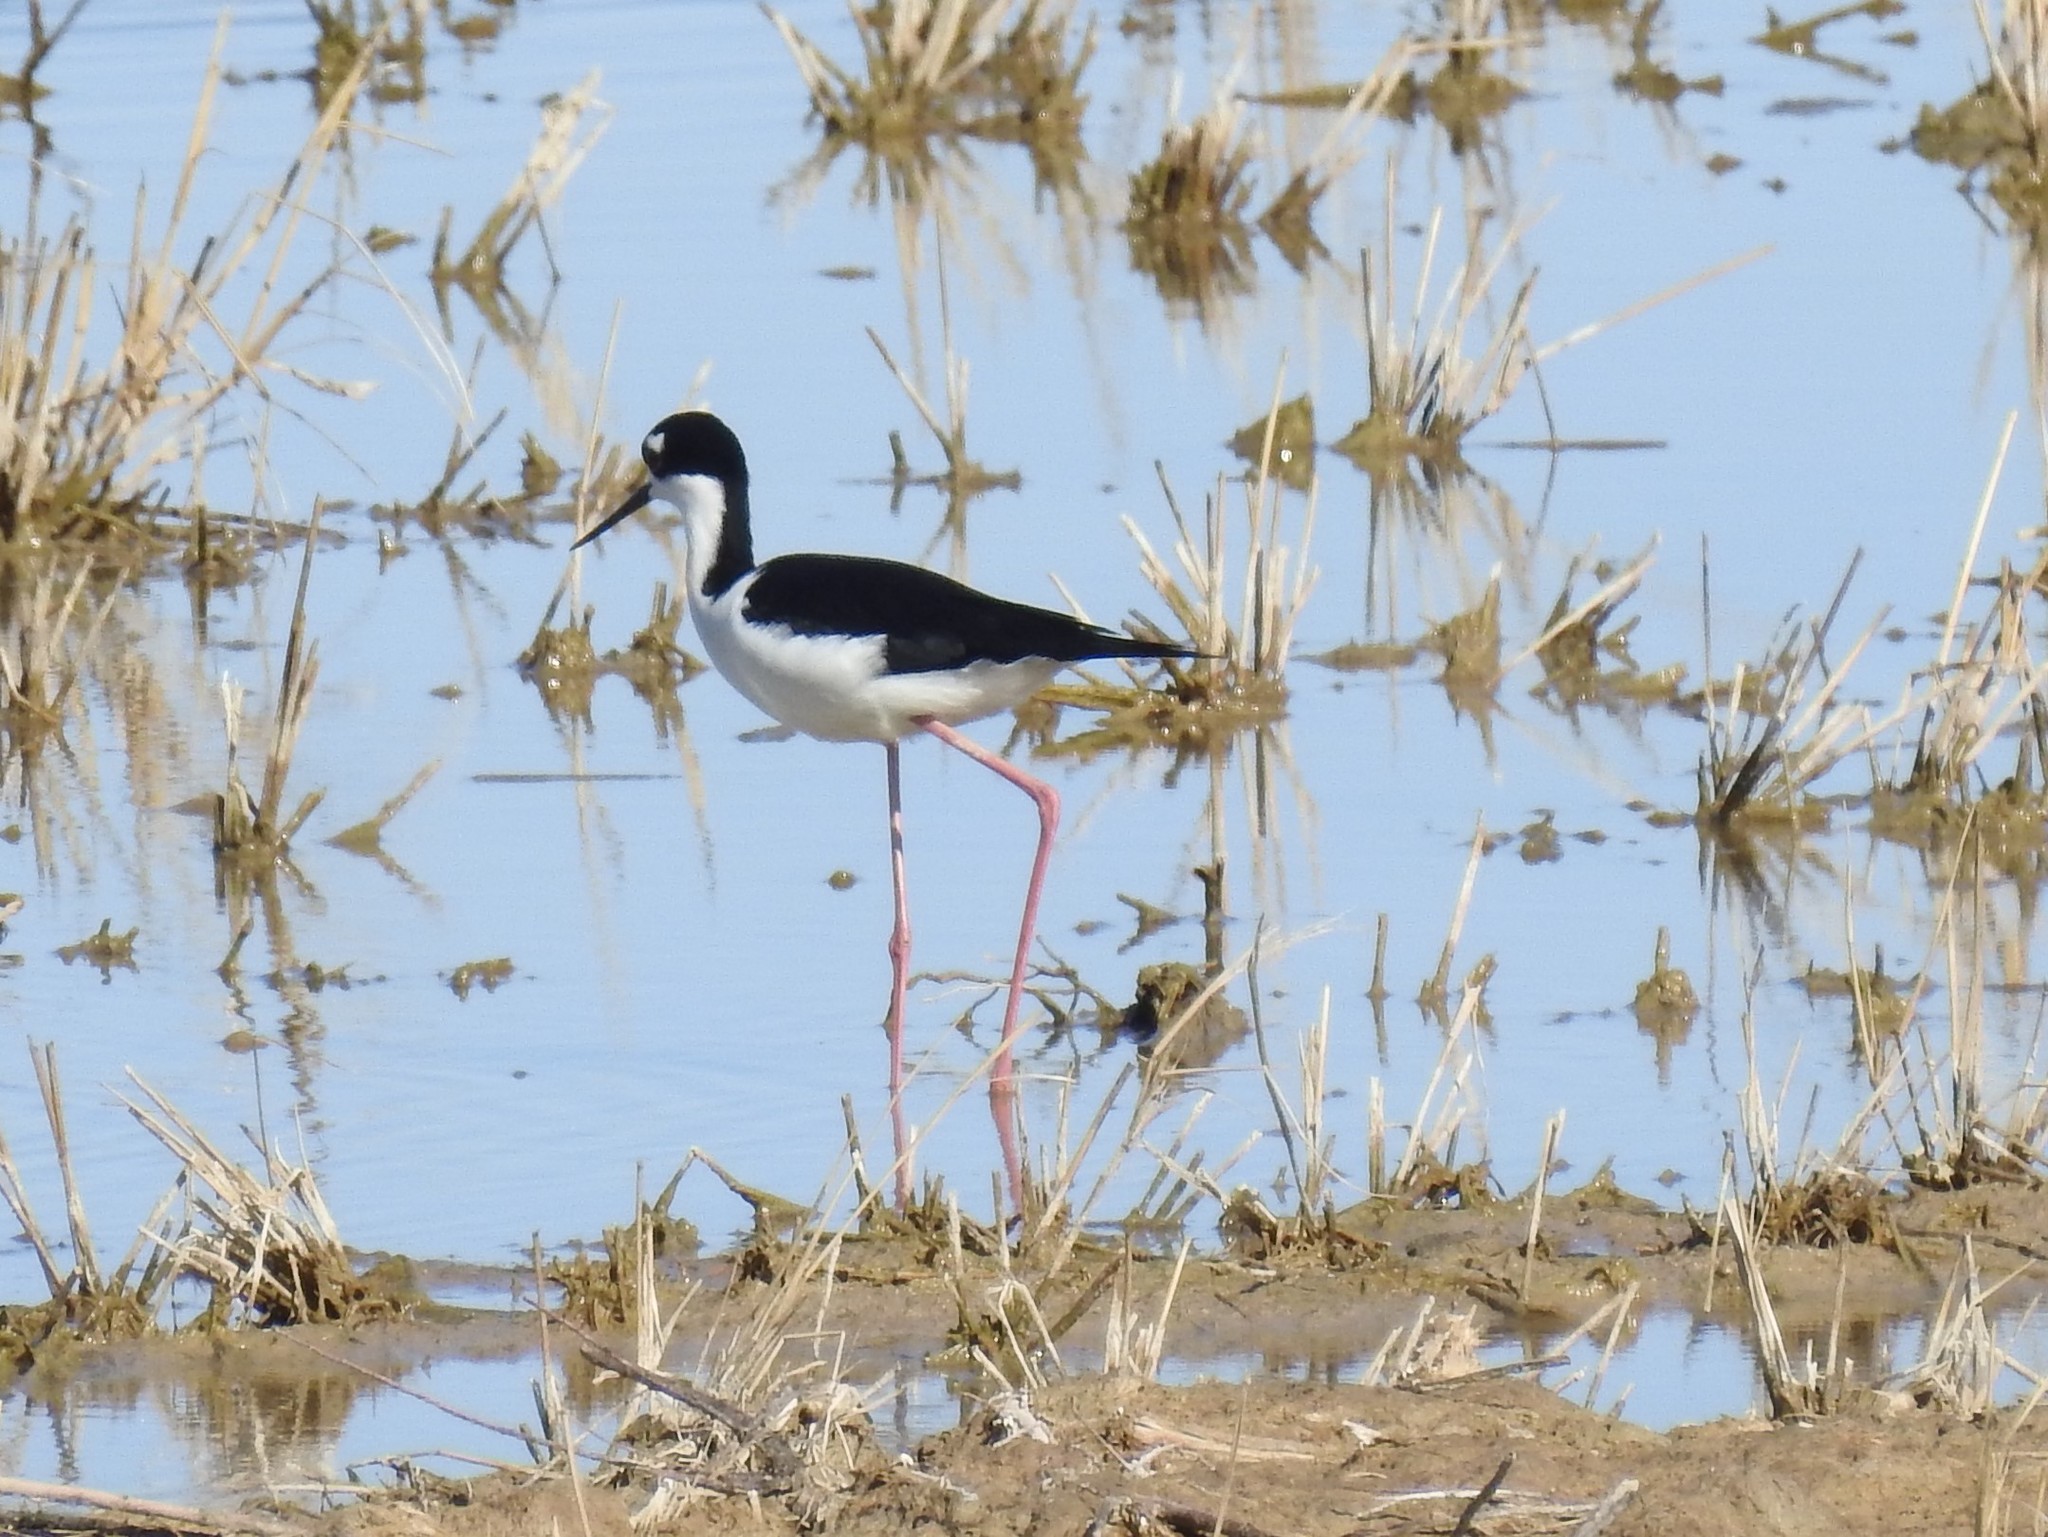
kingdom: Animalia
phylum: Chordata
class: Aves
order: Charadriiformes
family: Recurvirostridae
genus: Himantopus
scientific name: Himantopus mexicanus
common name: Black-necked stilt
